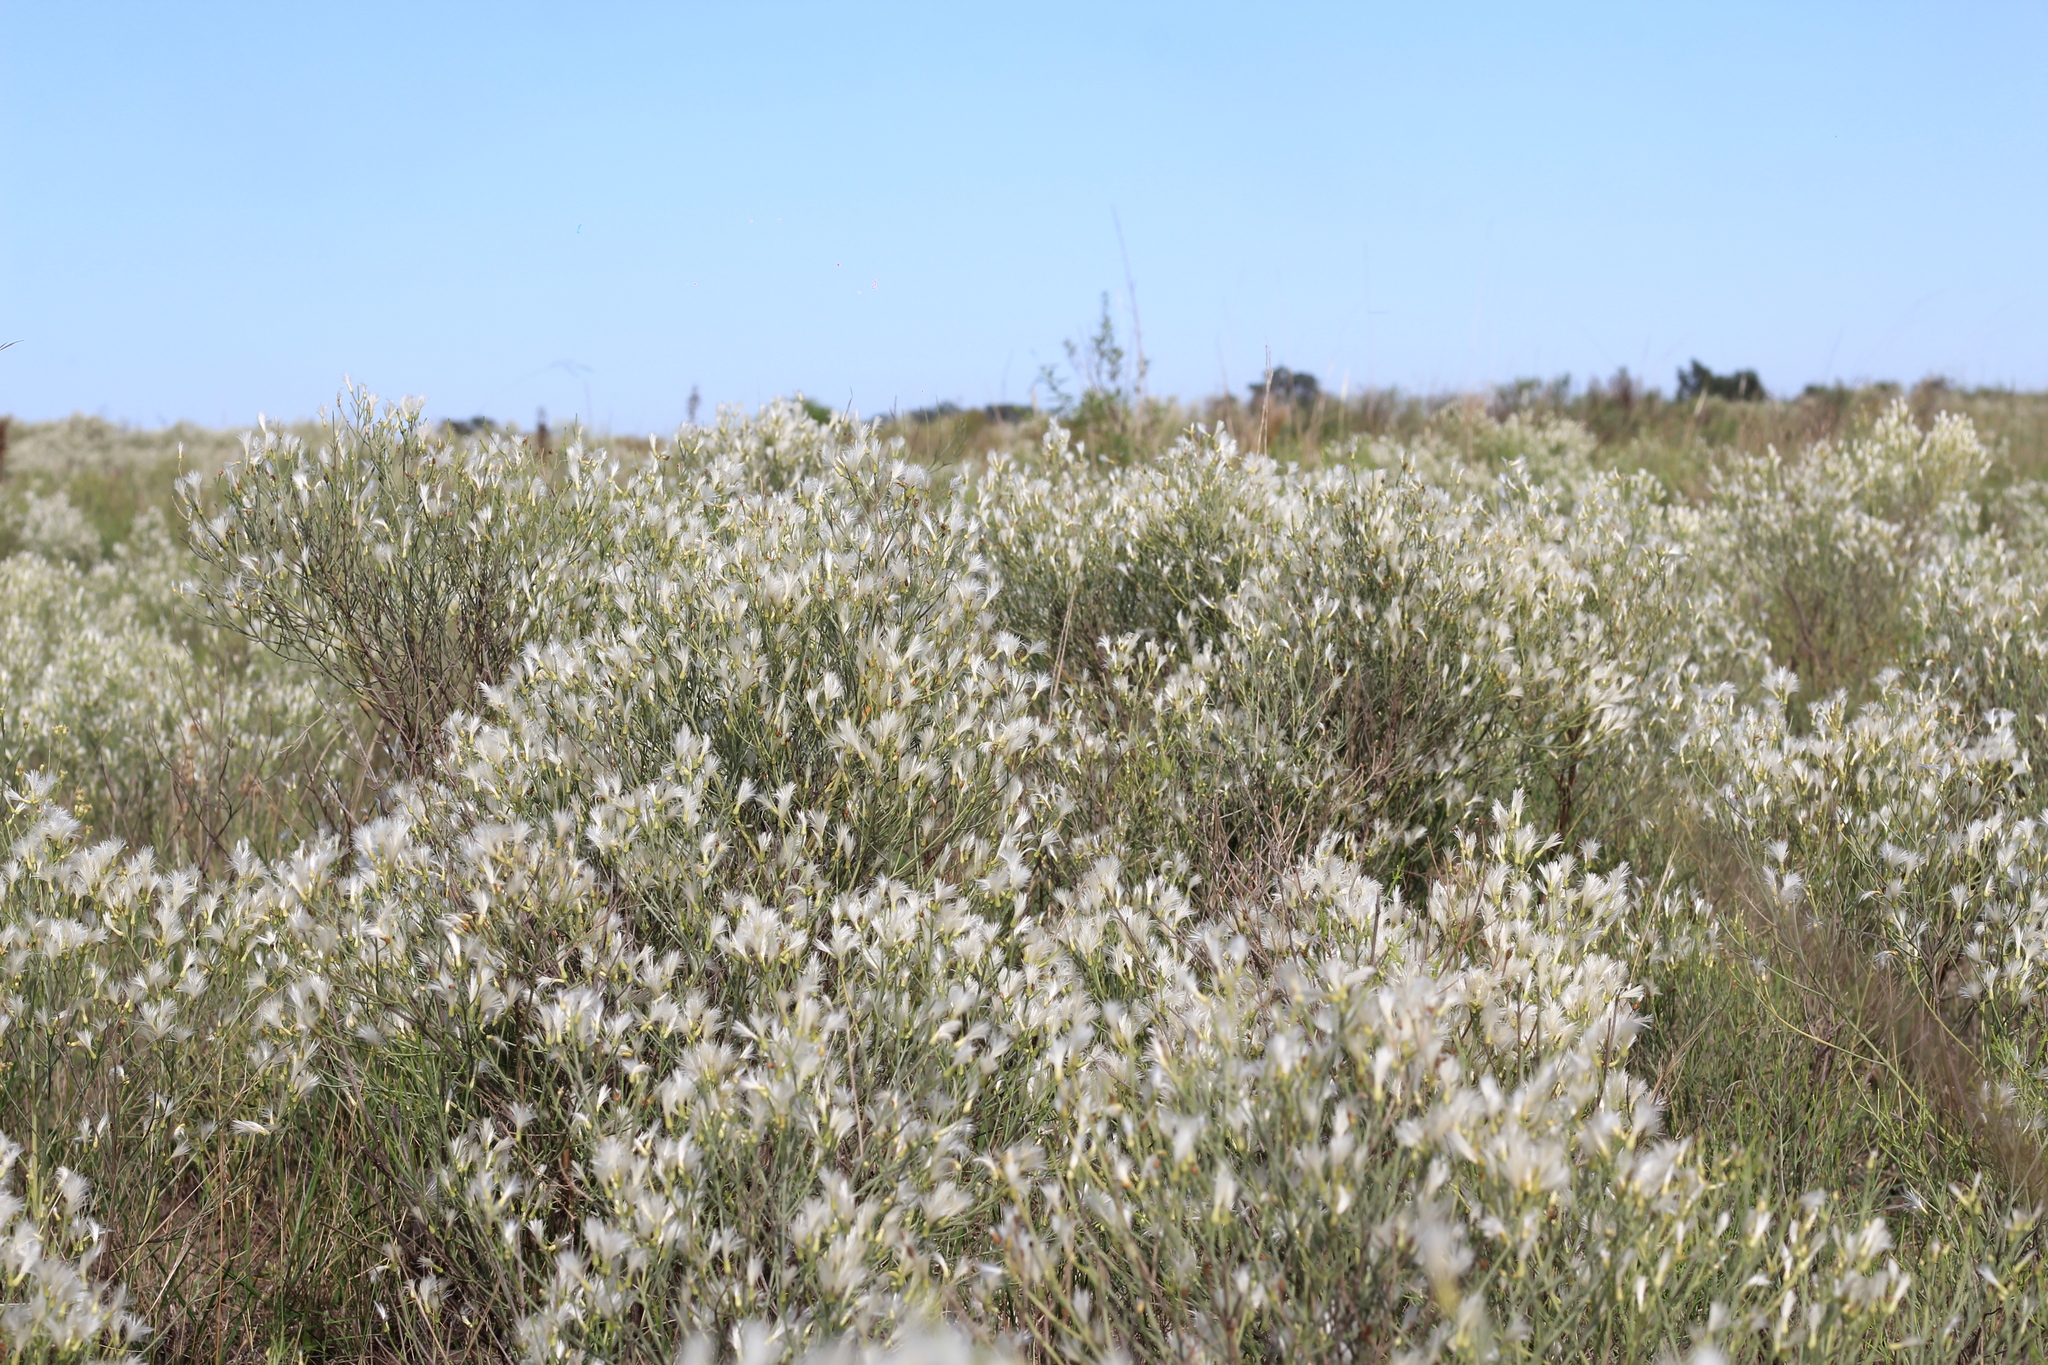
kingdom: Plantae
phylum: Tracheophyta
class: Magnoliopsida
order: Asterales
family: Asteraceae
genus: Baccharis
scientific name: Baccharis notosergila
